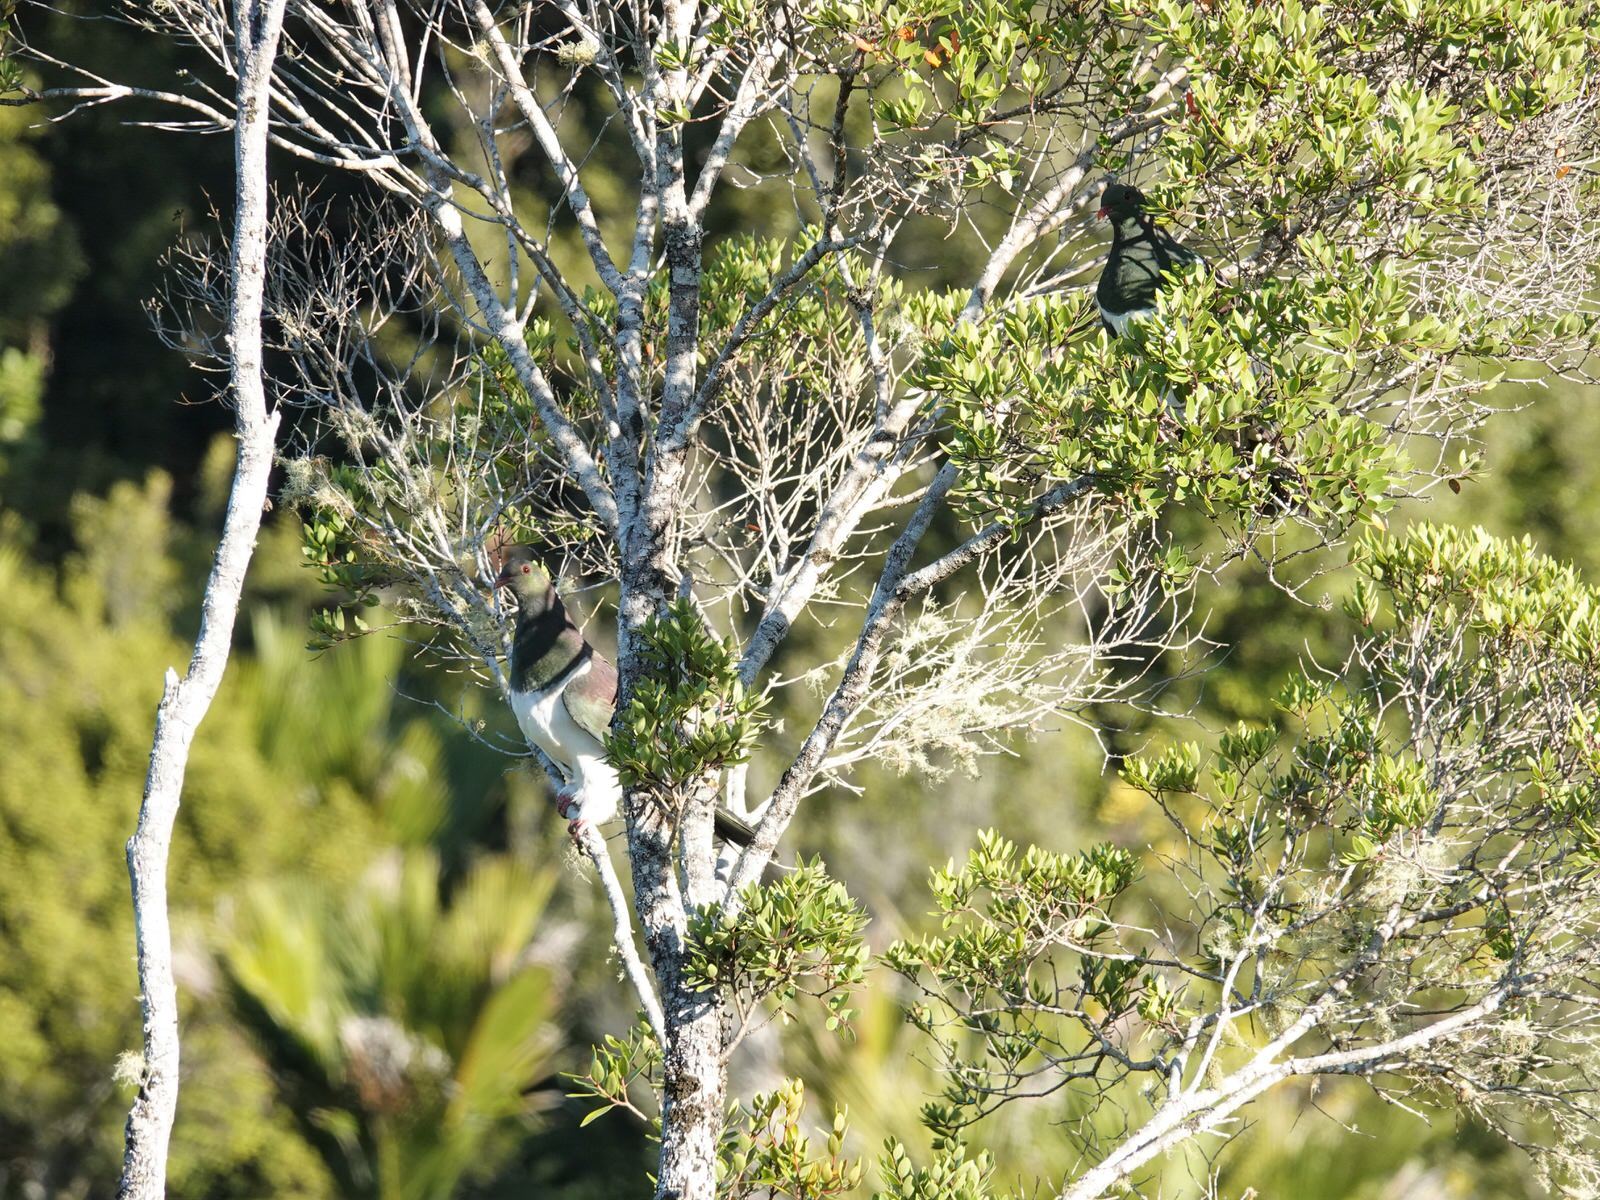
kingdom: Animalia
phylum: Chordata
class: Aves
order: Columbiformes
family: Columbidae
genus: Hemiphaga
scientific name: Hemiphaga novaeseelandiae
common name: New zealand pigeon
